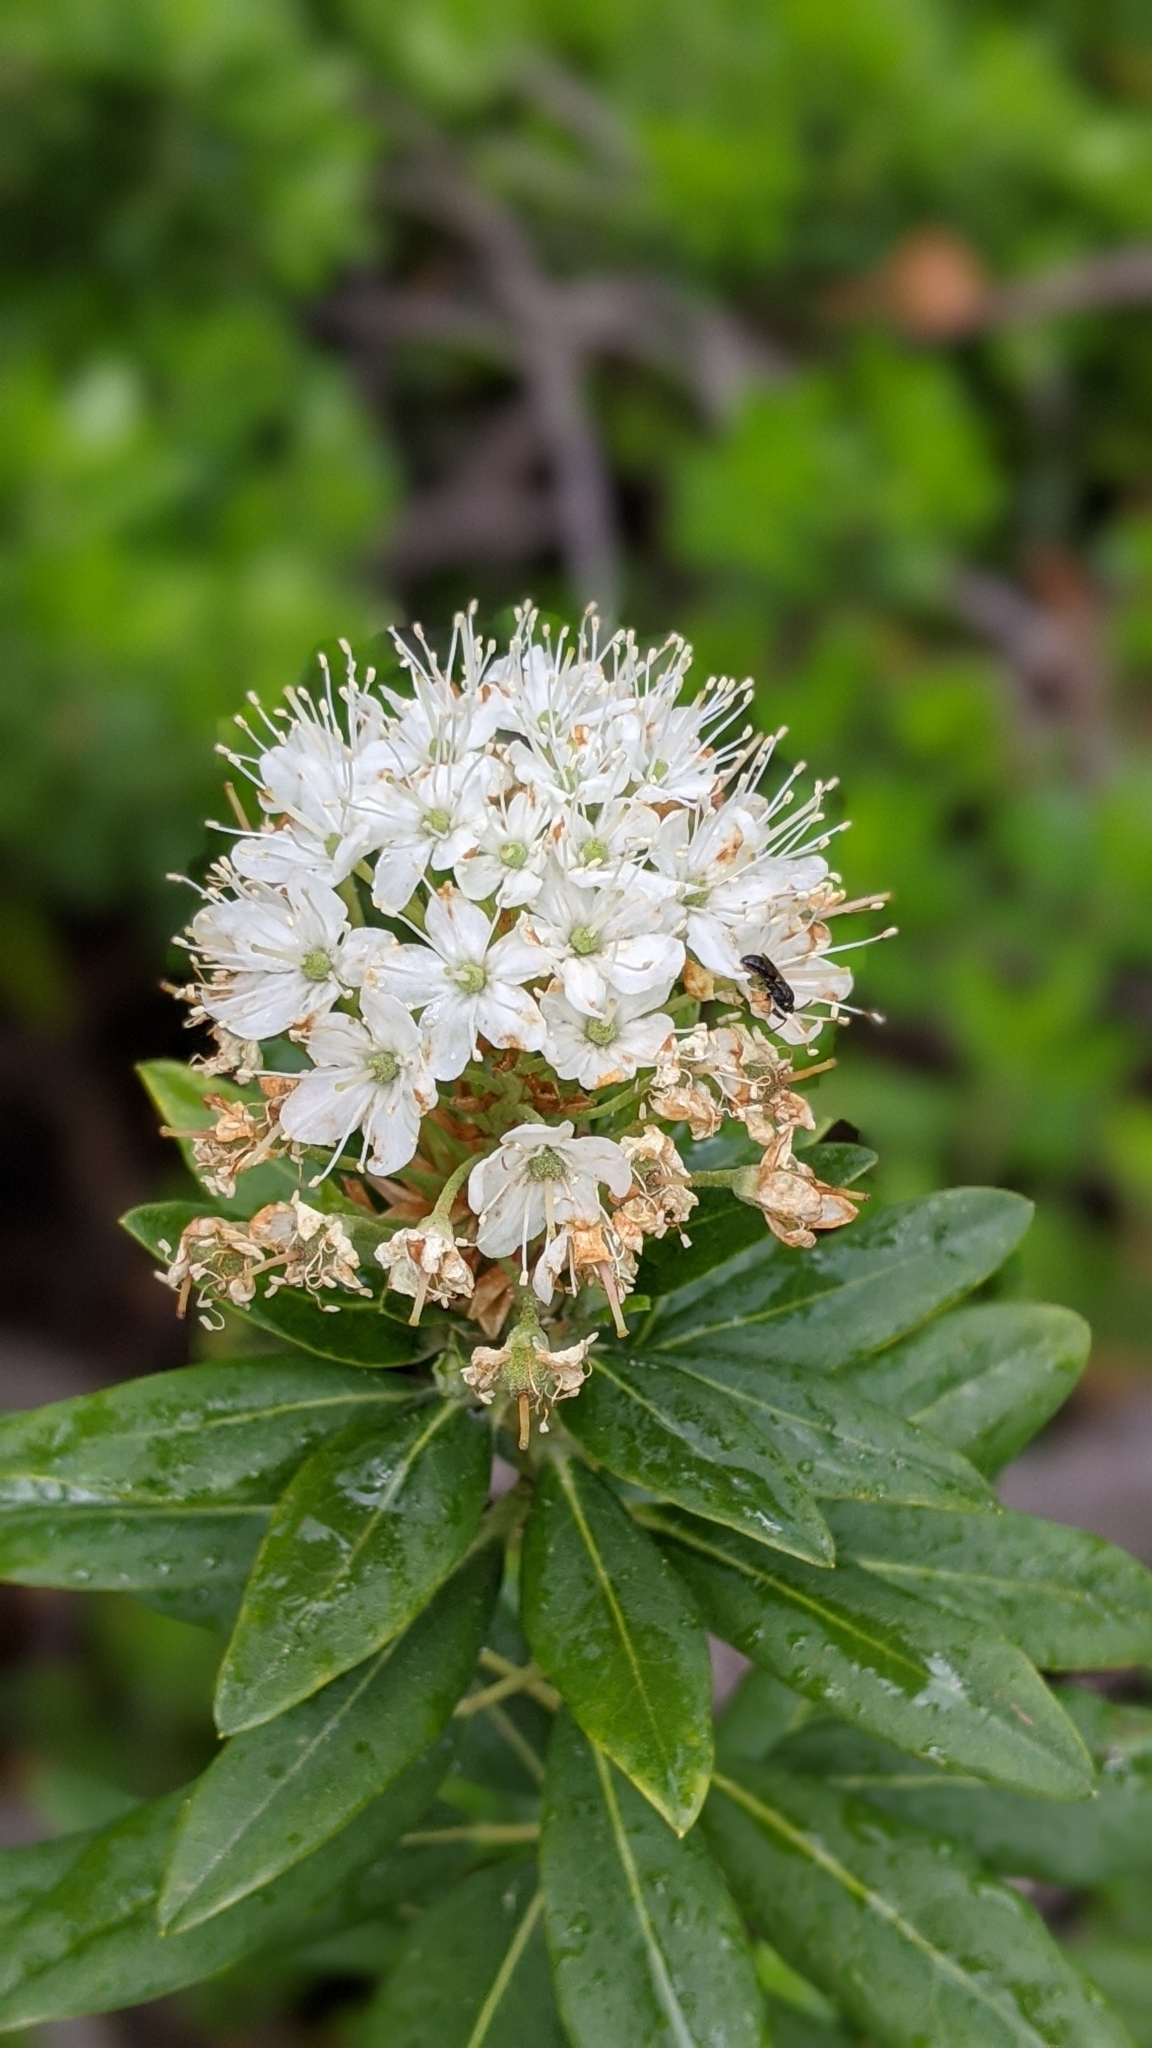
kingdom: Plantae
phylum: Tracheophyta
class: Magnoliopsida
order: Ericales
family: Ericaceae
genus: Rhododendron
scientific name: Rhododendron columbianum
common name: Western labrador tea
